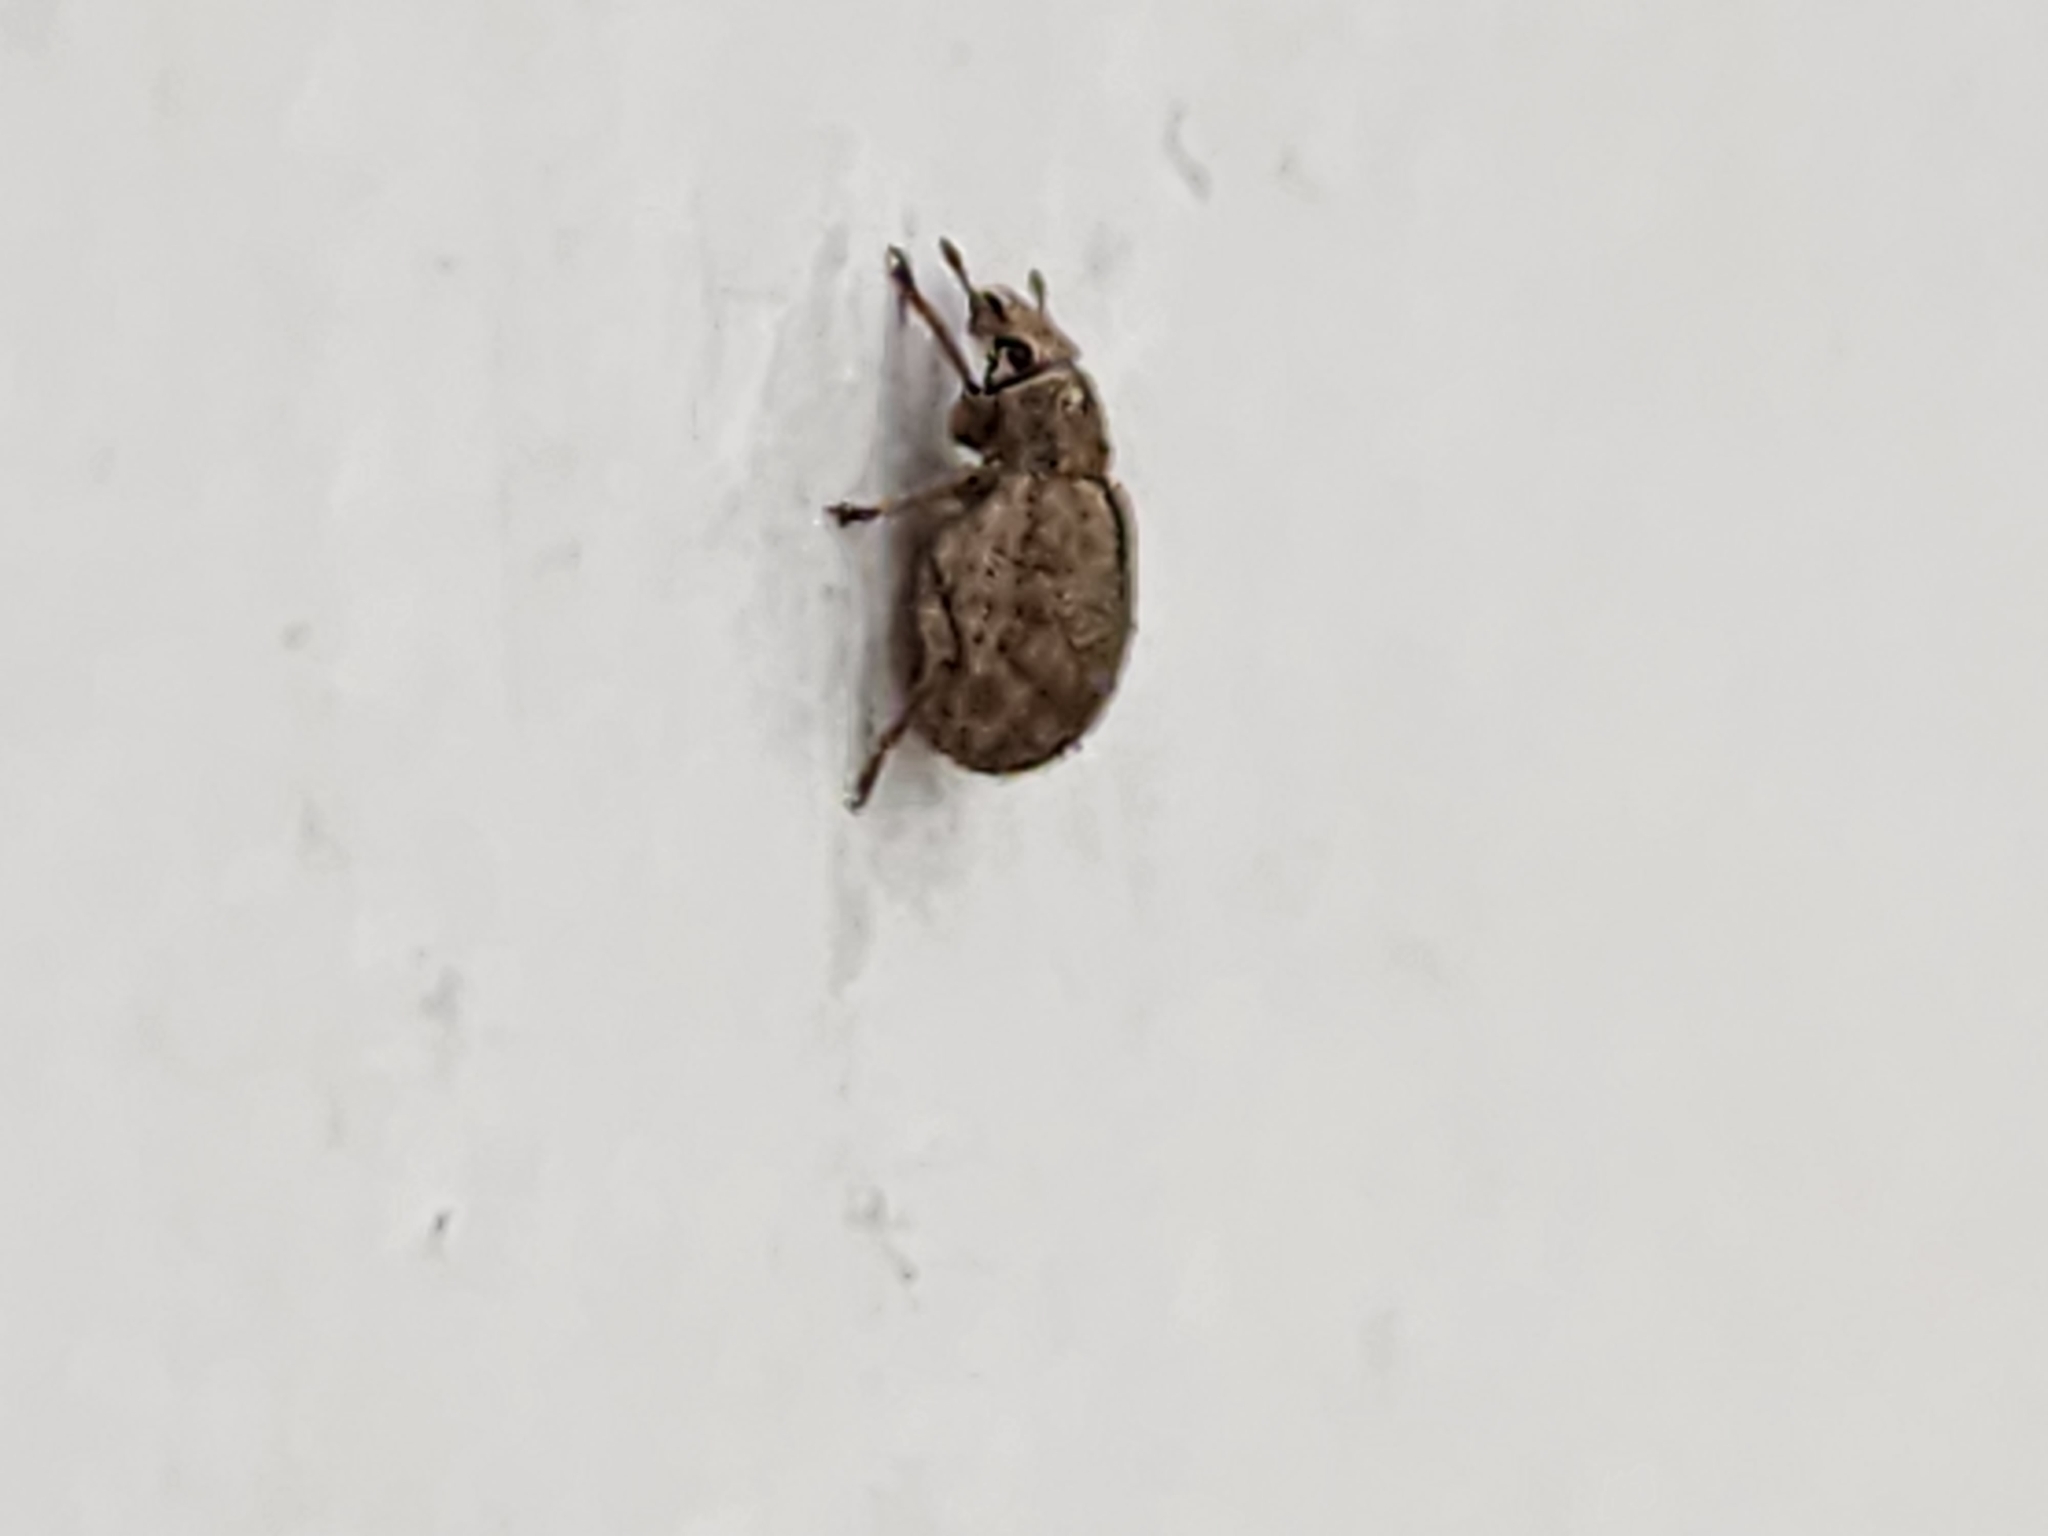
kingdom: Animalia
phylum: Arthropoda
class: Insecta
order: Coleoptera
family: Curculionidae
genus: Strophosoma
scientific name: Strophosoma melanogrammum
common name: Weevil
